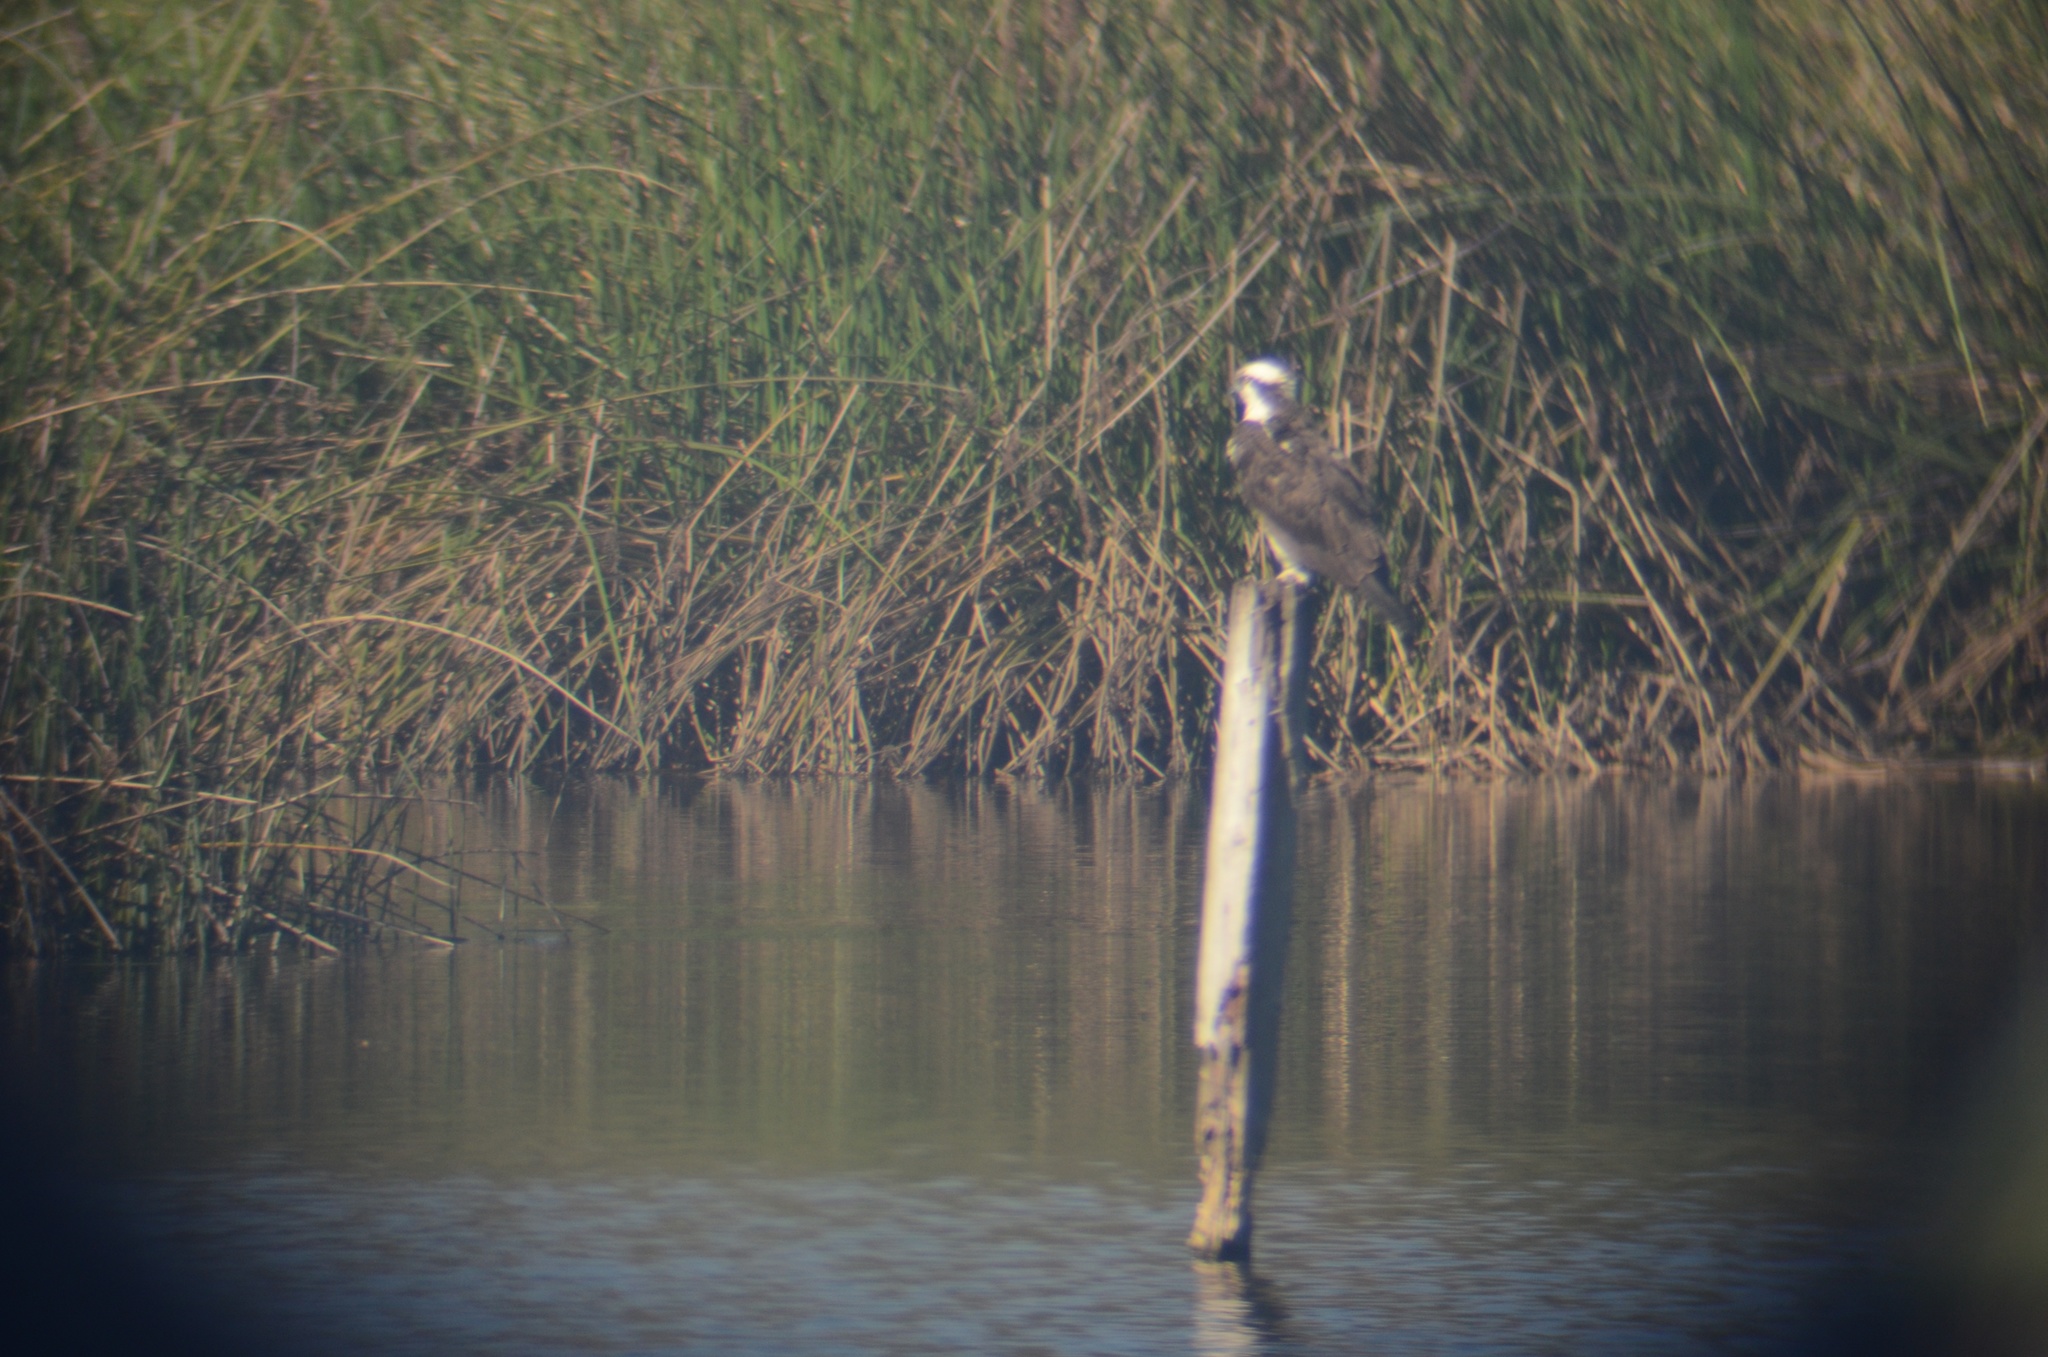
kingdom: Animalia
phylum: Chordata
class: Aves
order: Accipitriformes
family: Pandionidae
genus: Pandion
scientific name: Pandion haliaetus
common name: Osprey
